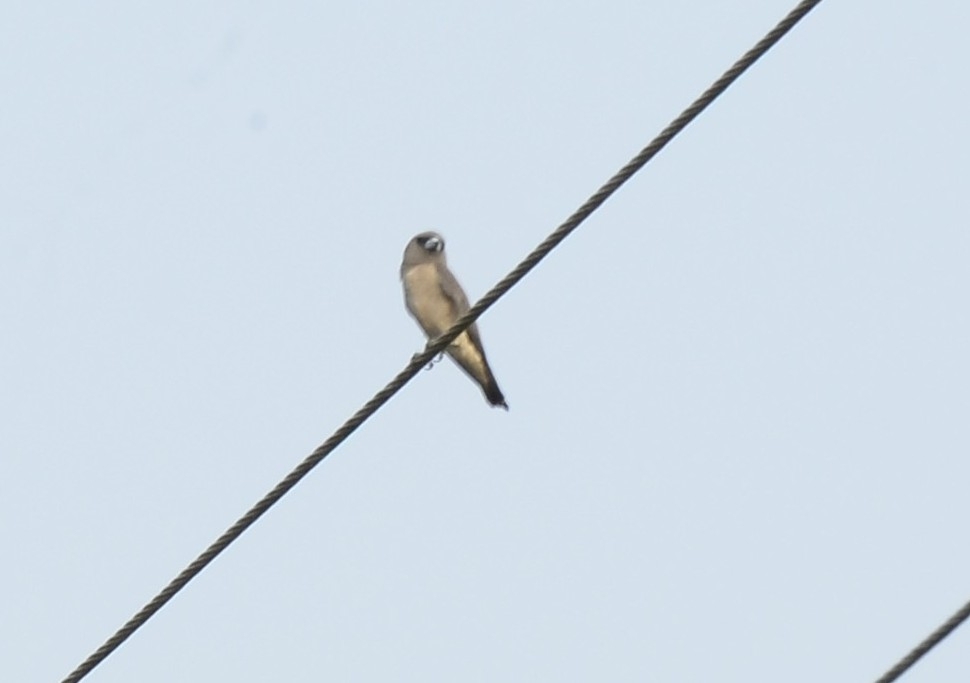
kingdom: Animalia
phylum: Chordata
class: Aves
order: Passeriformes
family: Artamidae
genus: Artamus
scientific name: Artamus fuscus
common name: Ashy woodswallow
